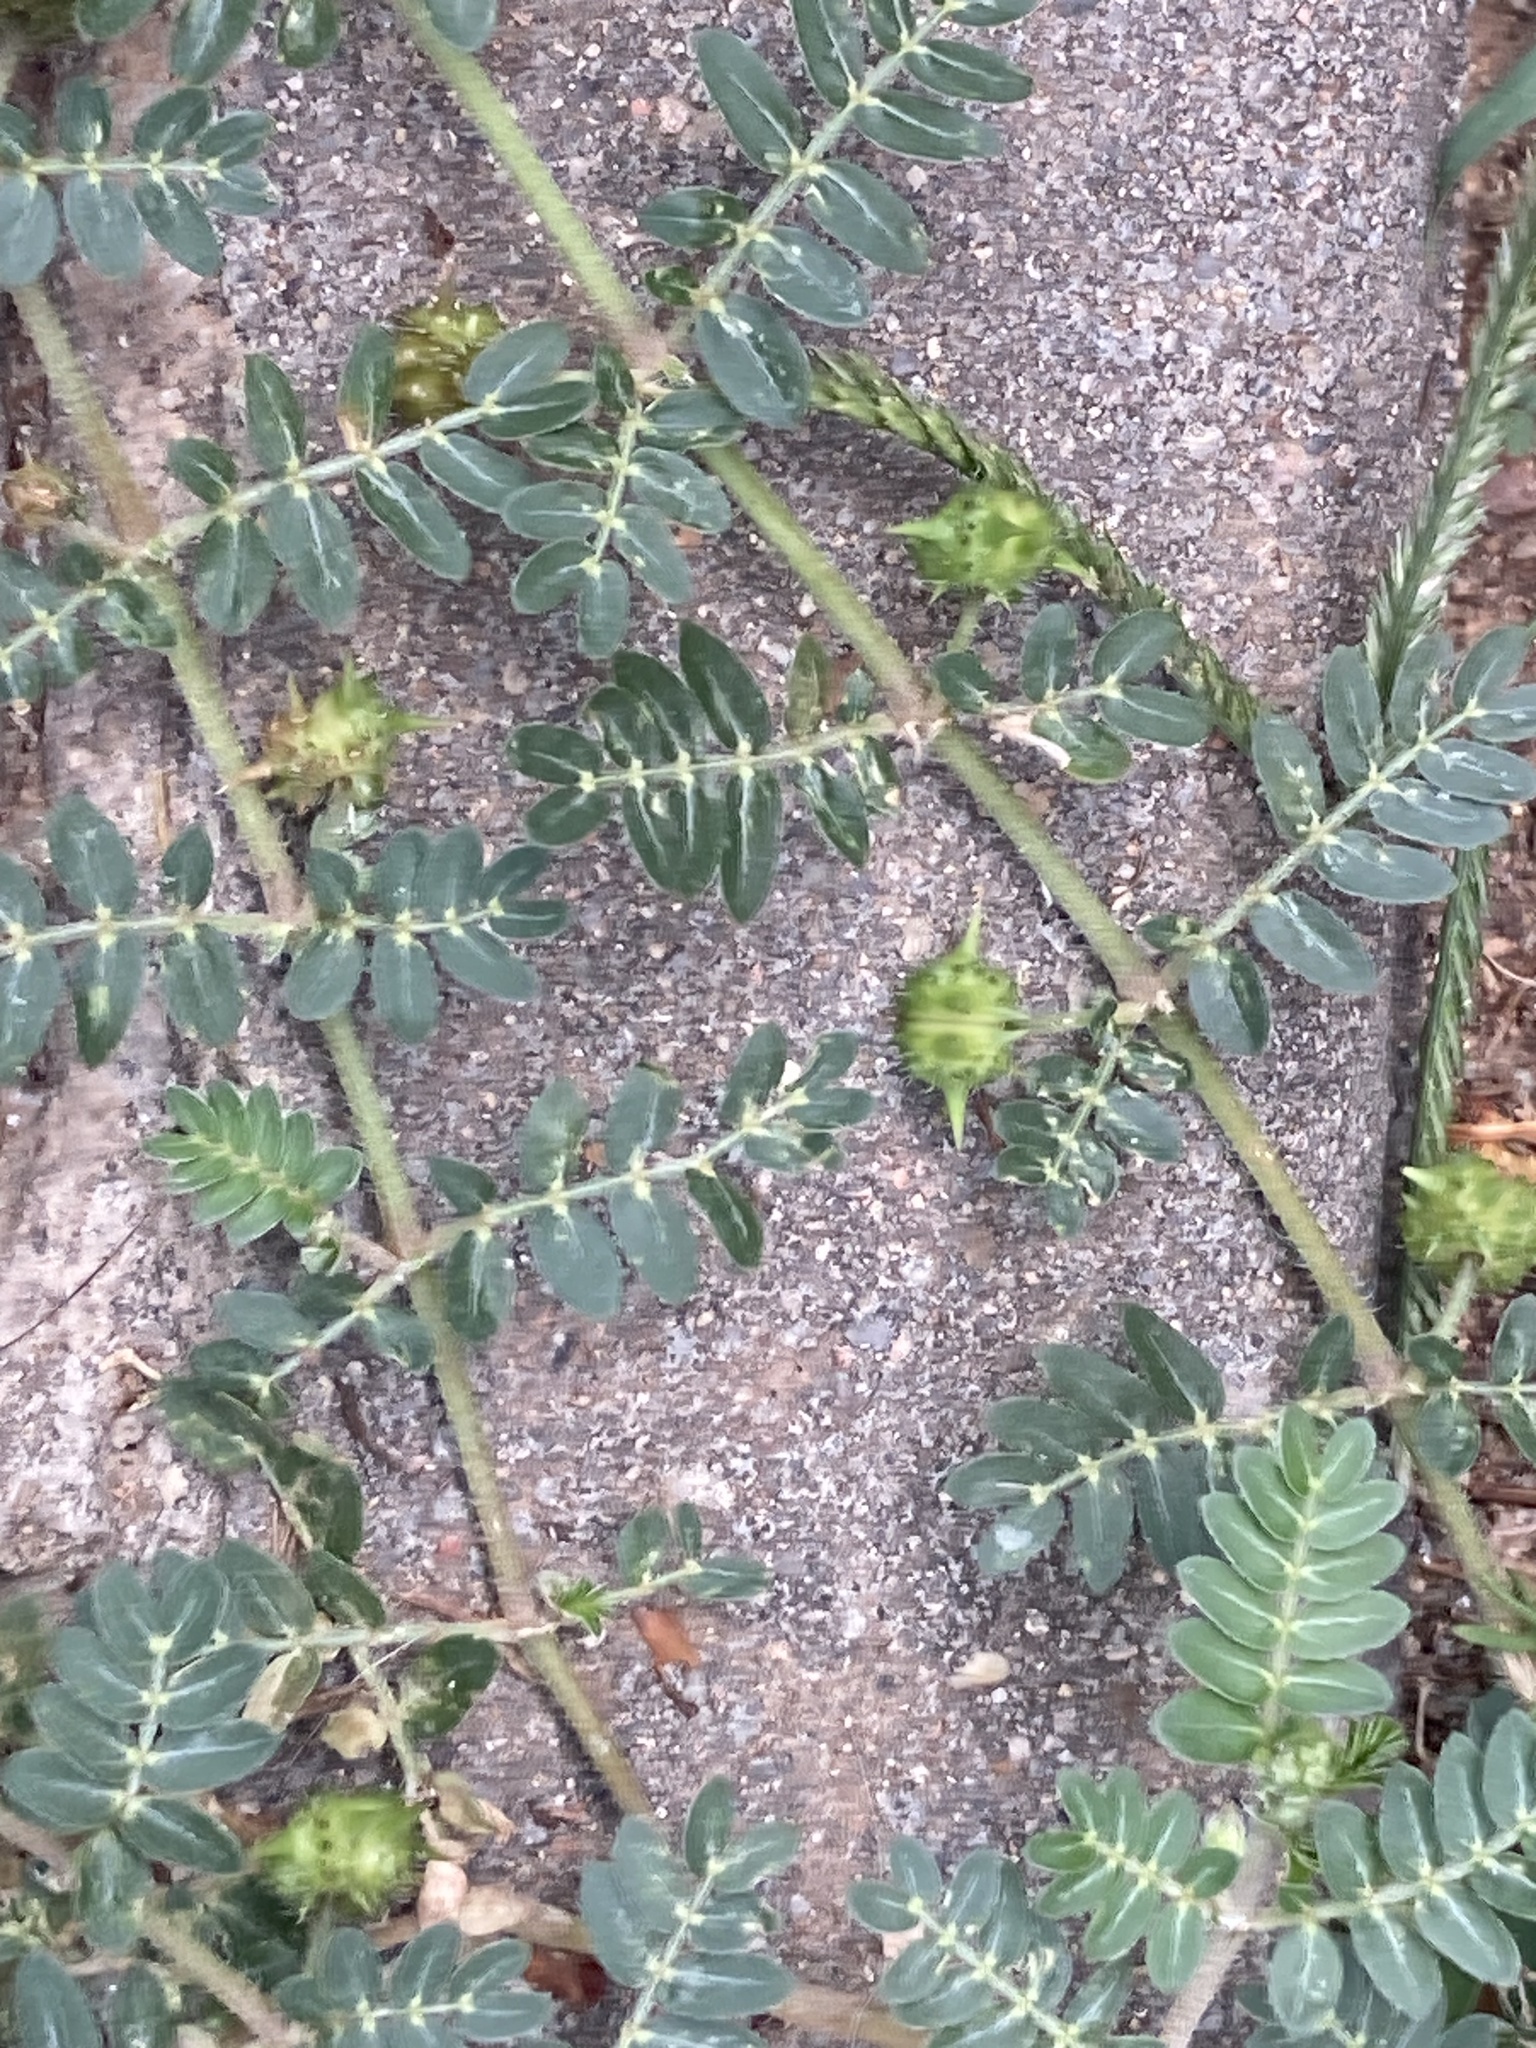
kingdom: Plantae
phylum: Tracheophyta
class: Magnoliopsida
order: Zygophyllales
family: Zygophyllaceae
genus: Tribulus
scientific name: Tribulus terrestris
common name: Puncturevine
